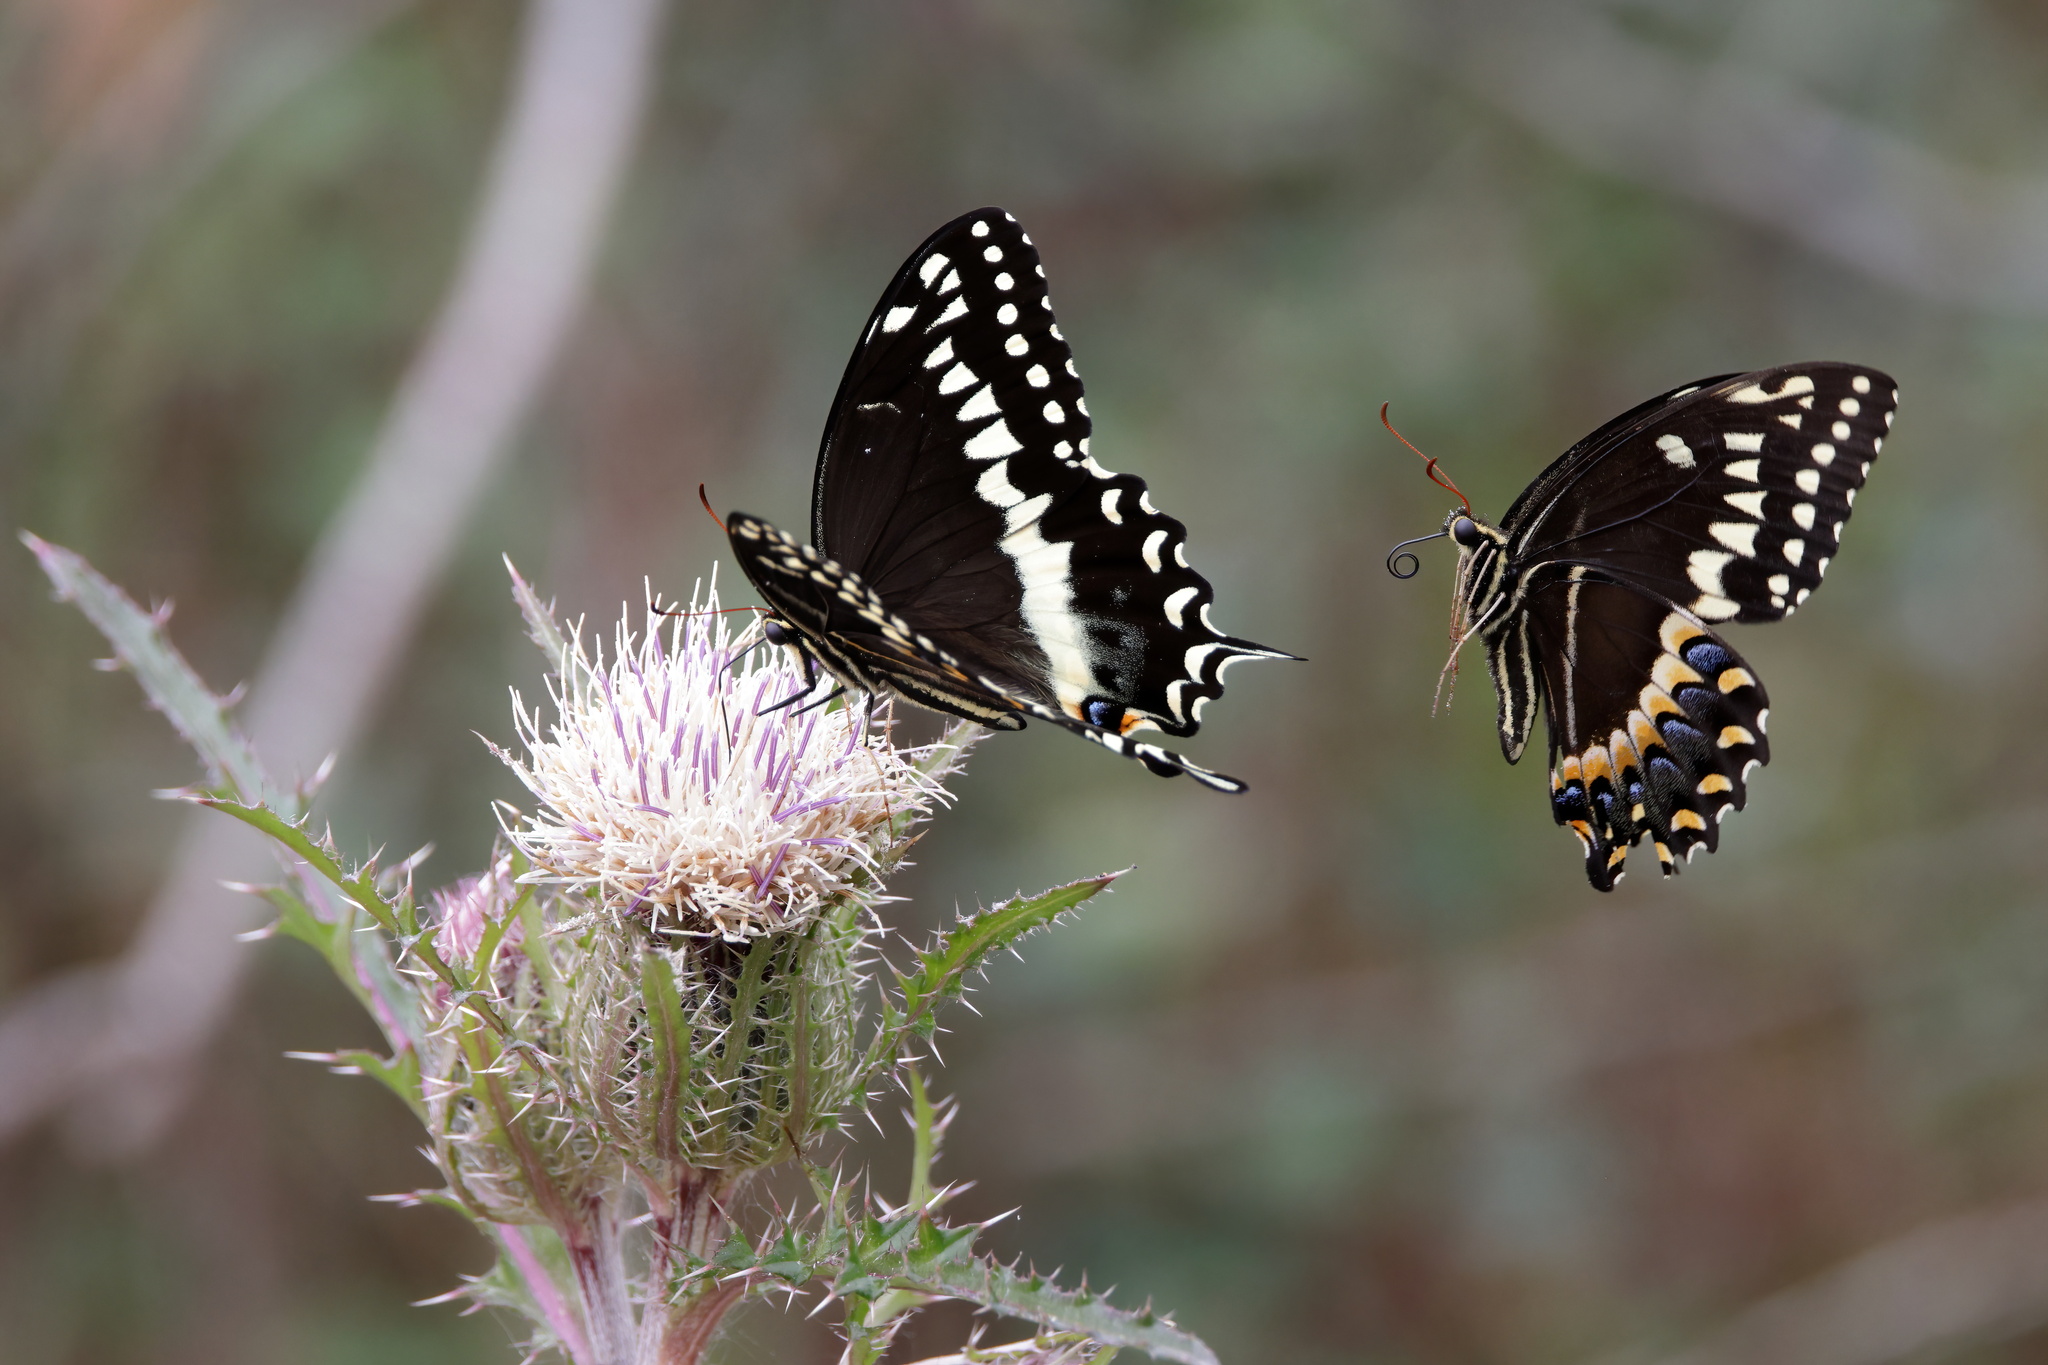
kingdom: Animalia
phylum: Arthropoda
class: Insecta
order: Lepidoptera
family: Papilionidae
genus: Papilio
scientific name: Papilio palamedes
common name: Palamedes swallowtail
